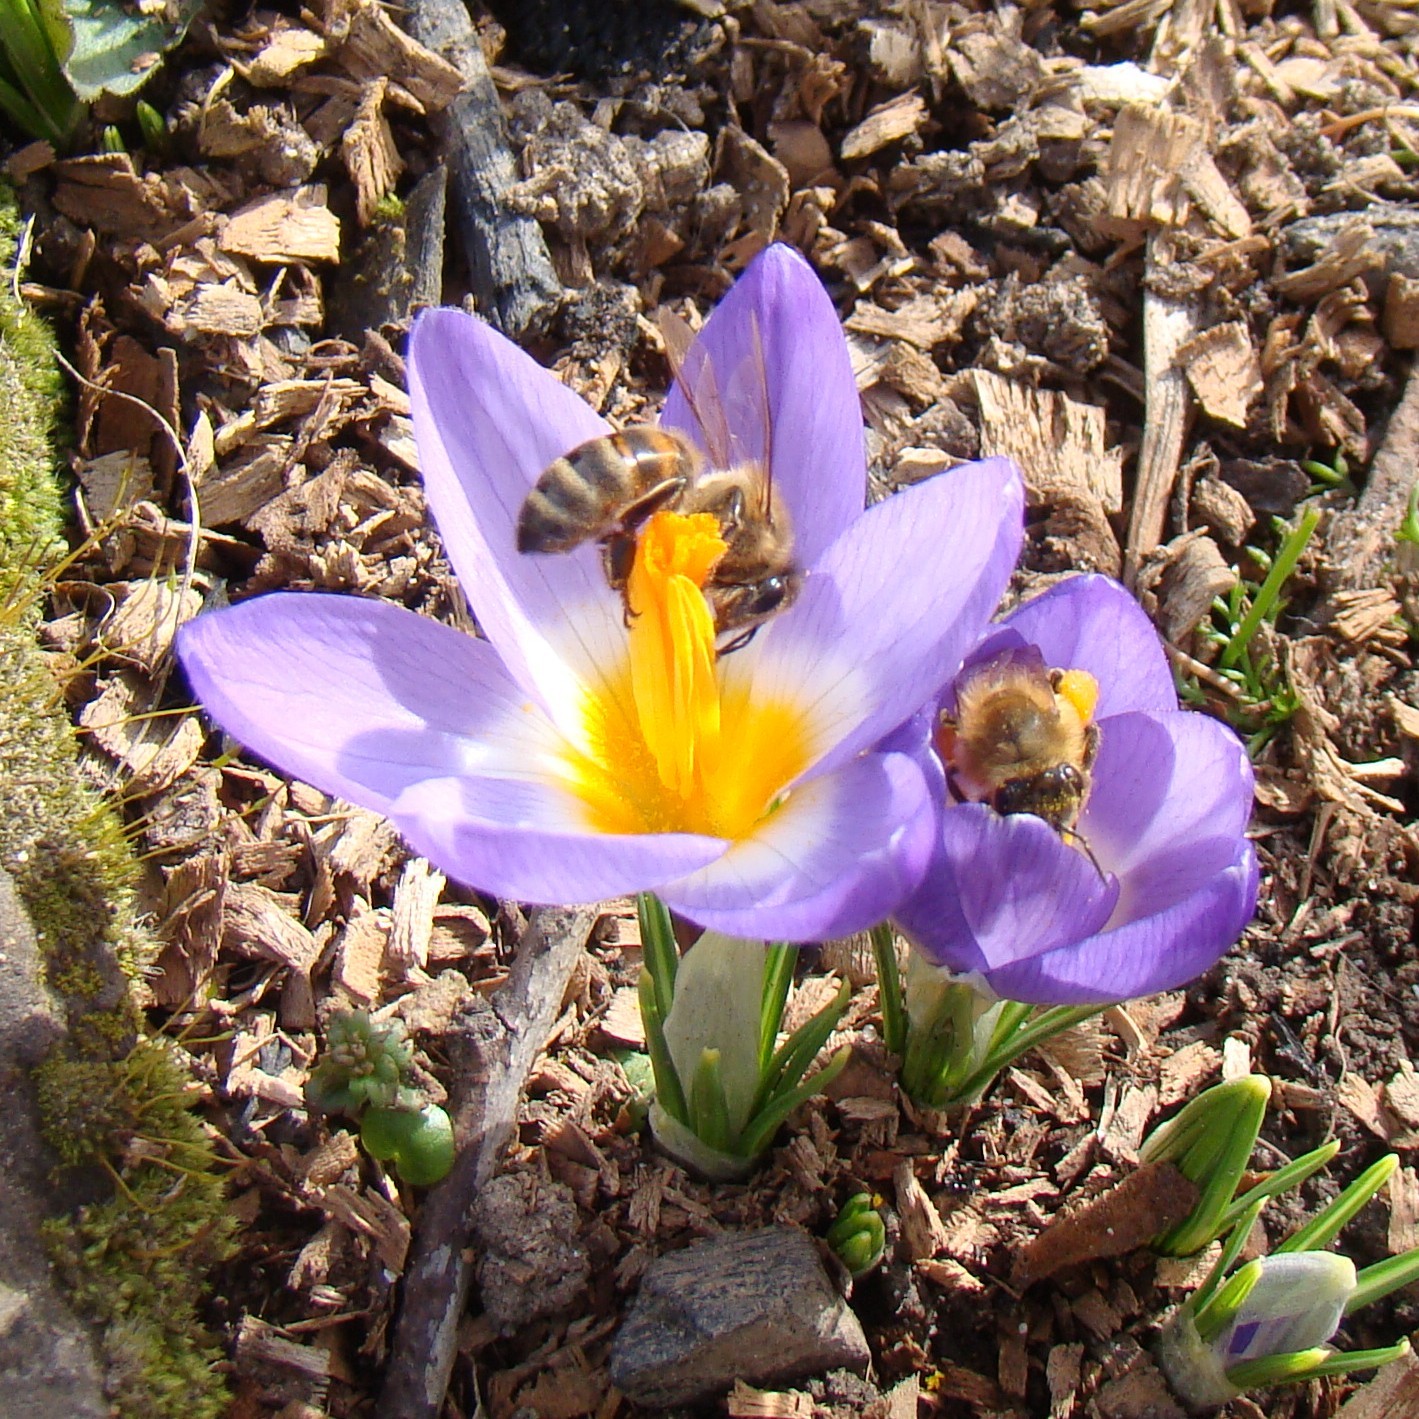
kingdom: Animalia
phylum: Arthropoda
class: Insecta
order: Hymenoptera
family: Apidae
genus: Apis
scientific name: Apis mellifera
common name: Honey bee
